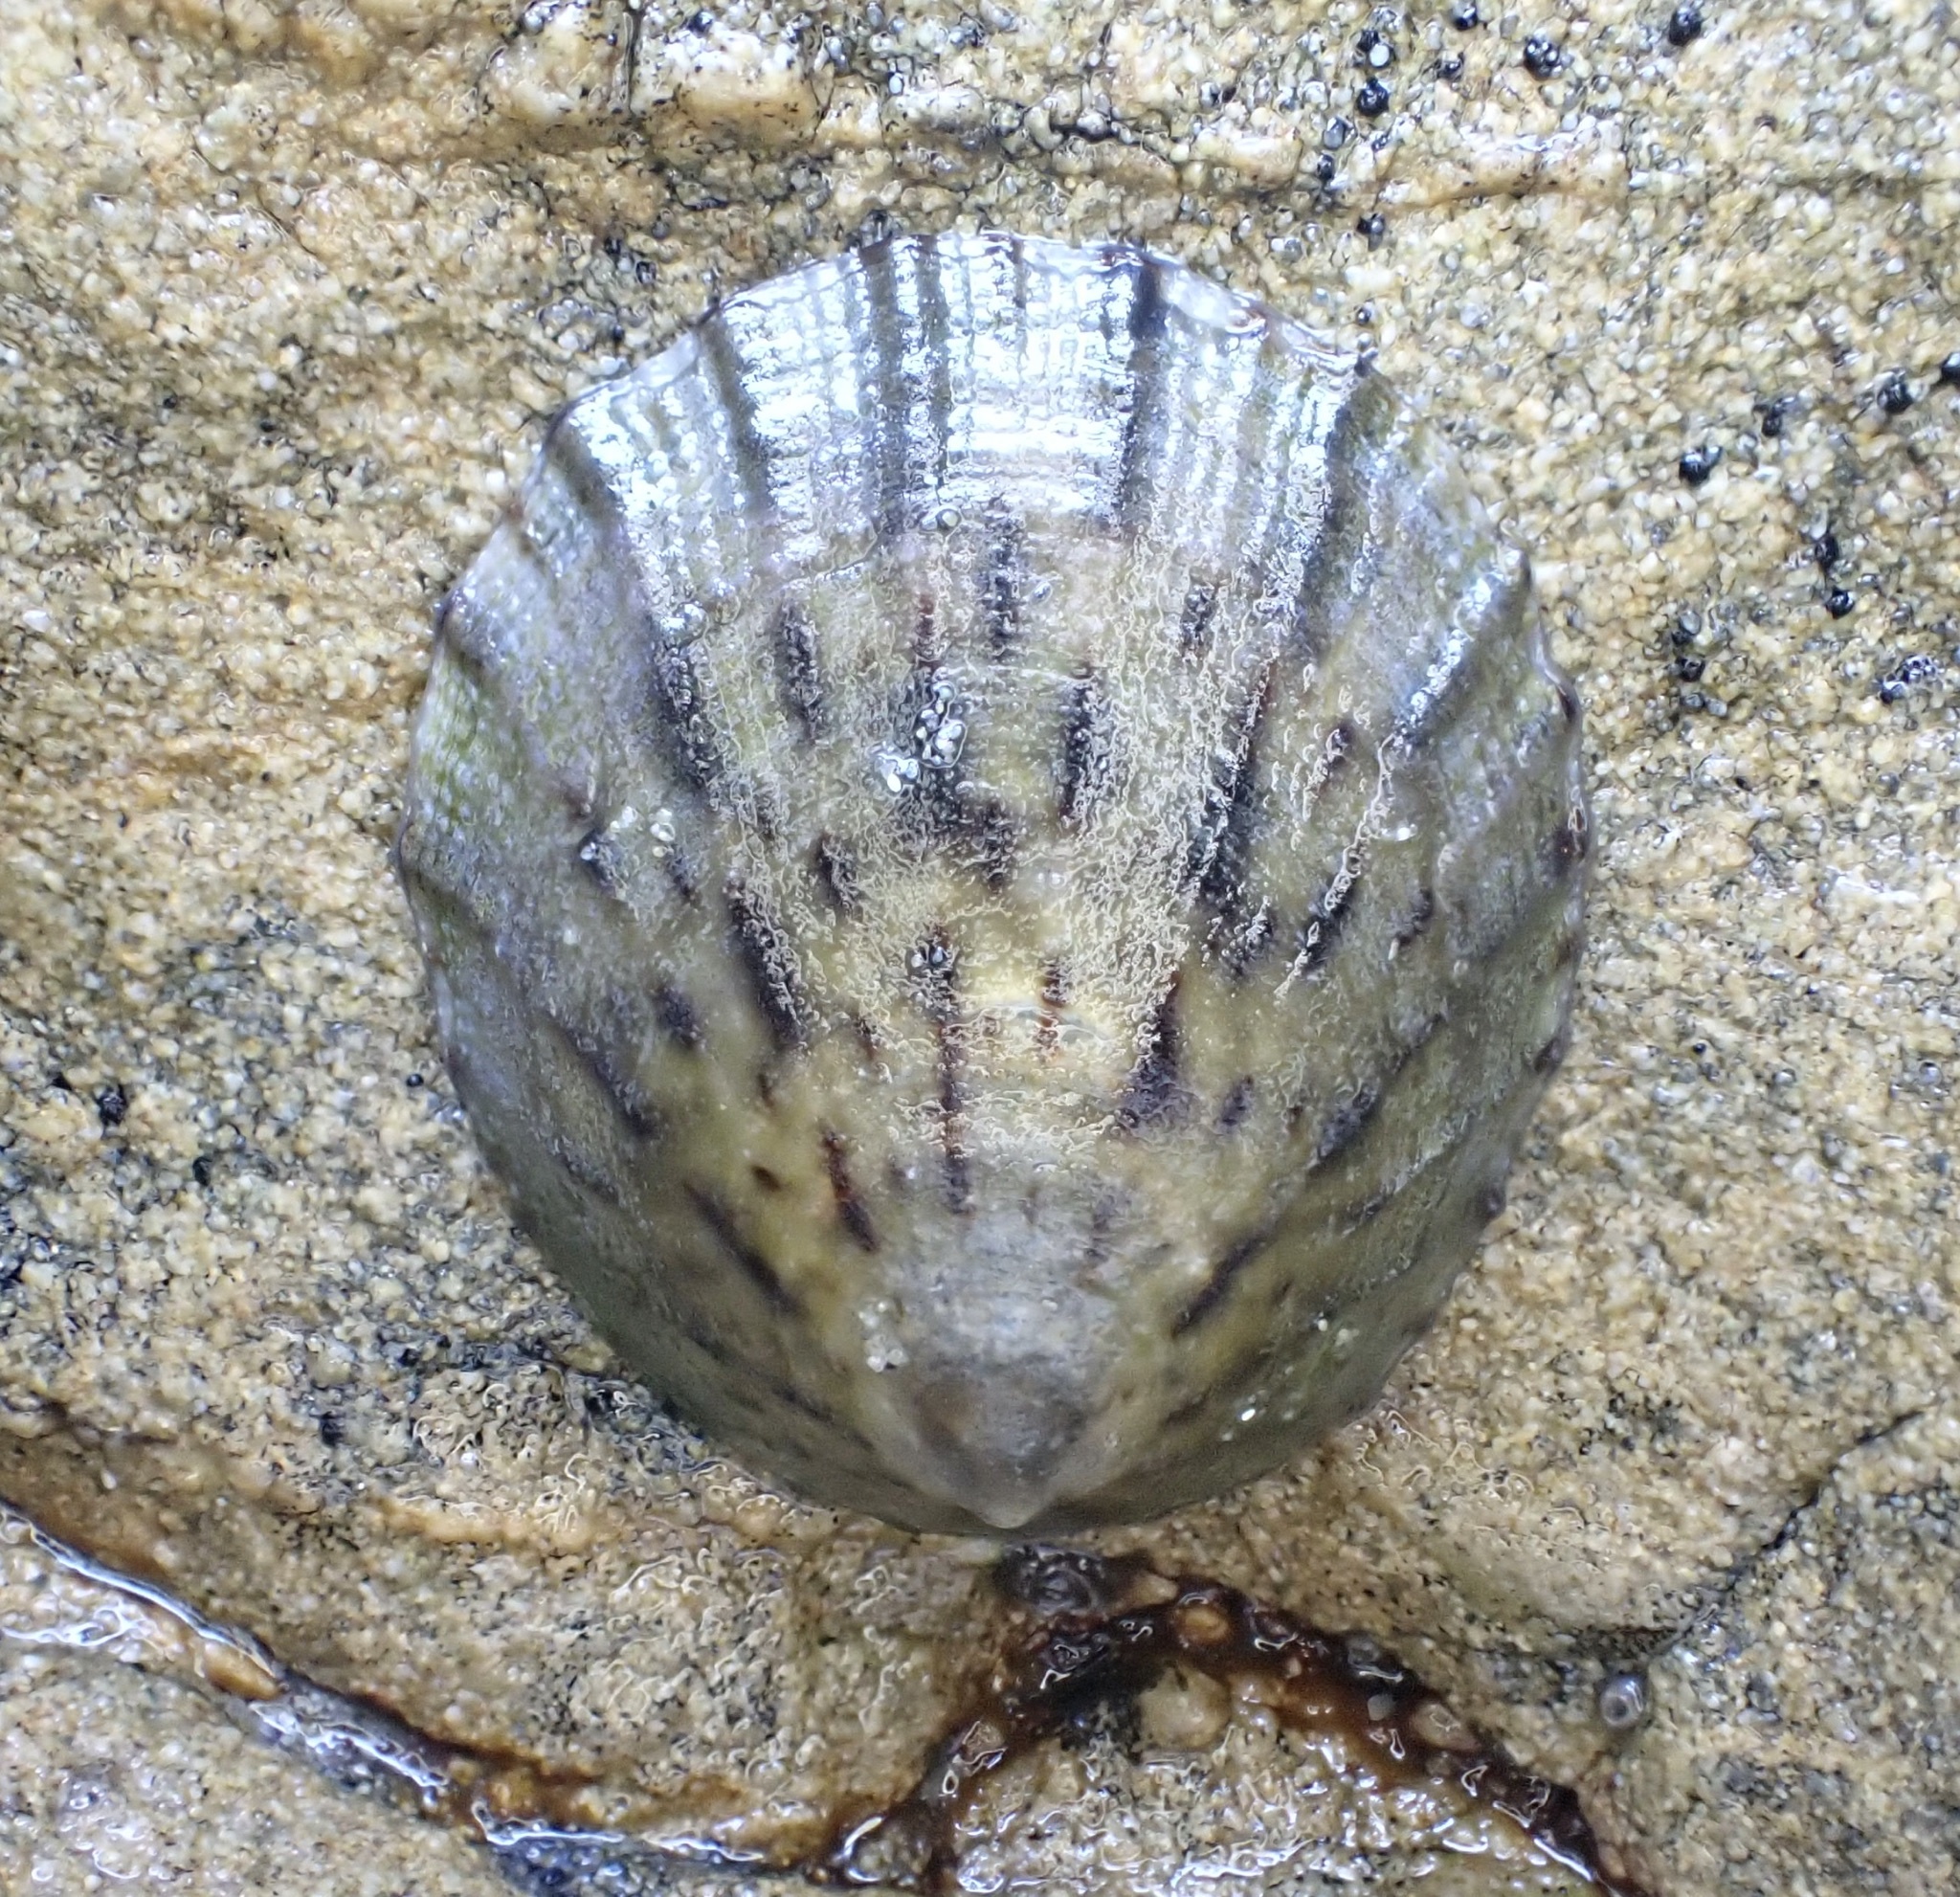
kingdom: Animalia
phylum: Mollusca
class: Gastropoda
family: Nacellidae
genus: Cellana
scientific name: Cellana radians
